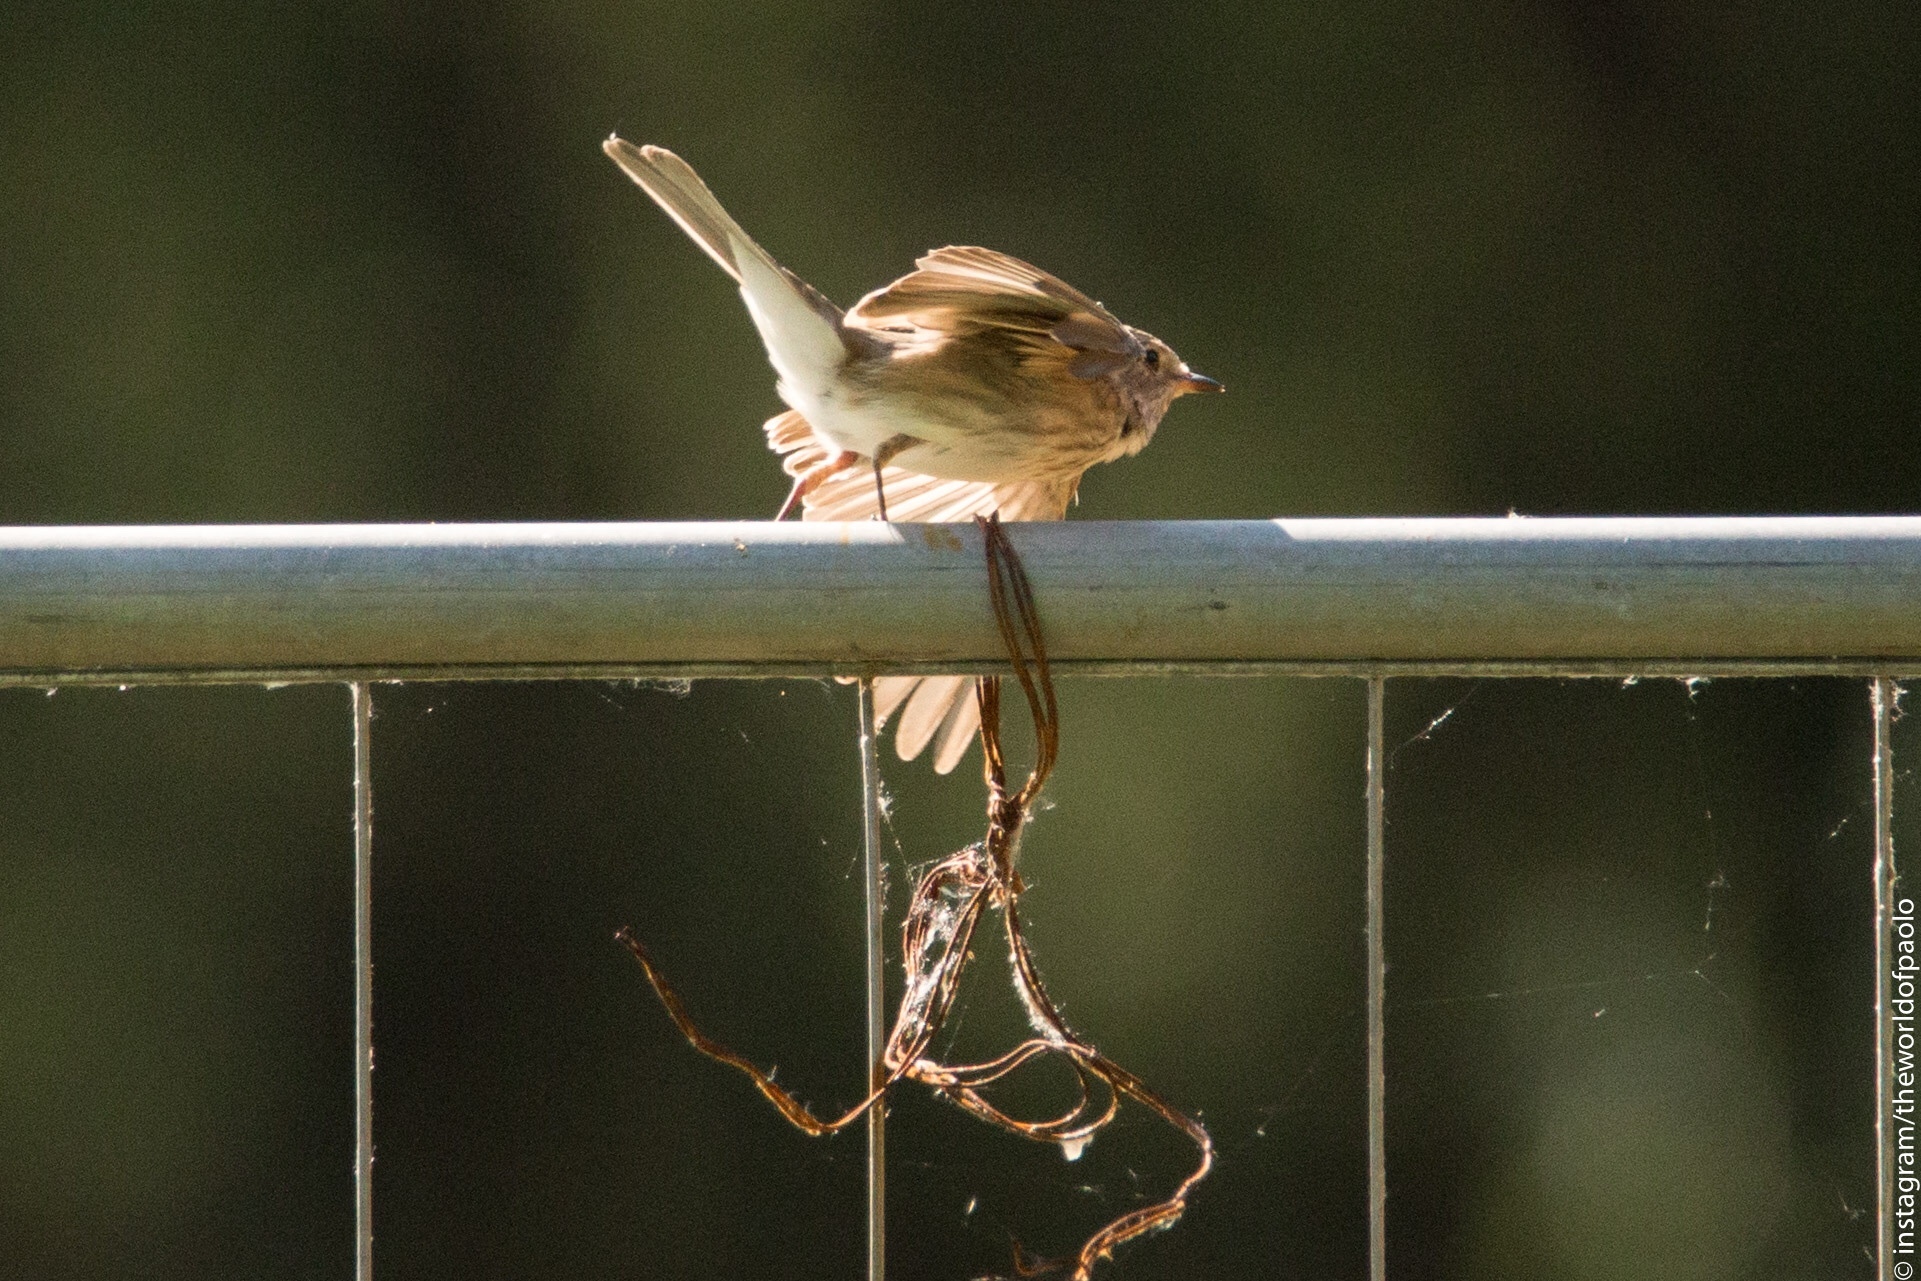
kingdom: Animalia
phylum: Chordata
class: Aves
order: Passeriformes
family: Muscicapidae
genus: Muscicapa
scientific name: Muscicapa striata
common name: Spotted flycatcher
